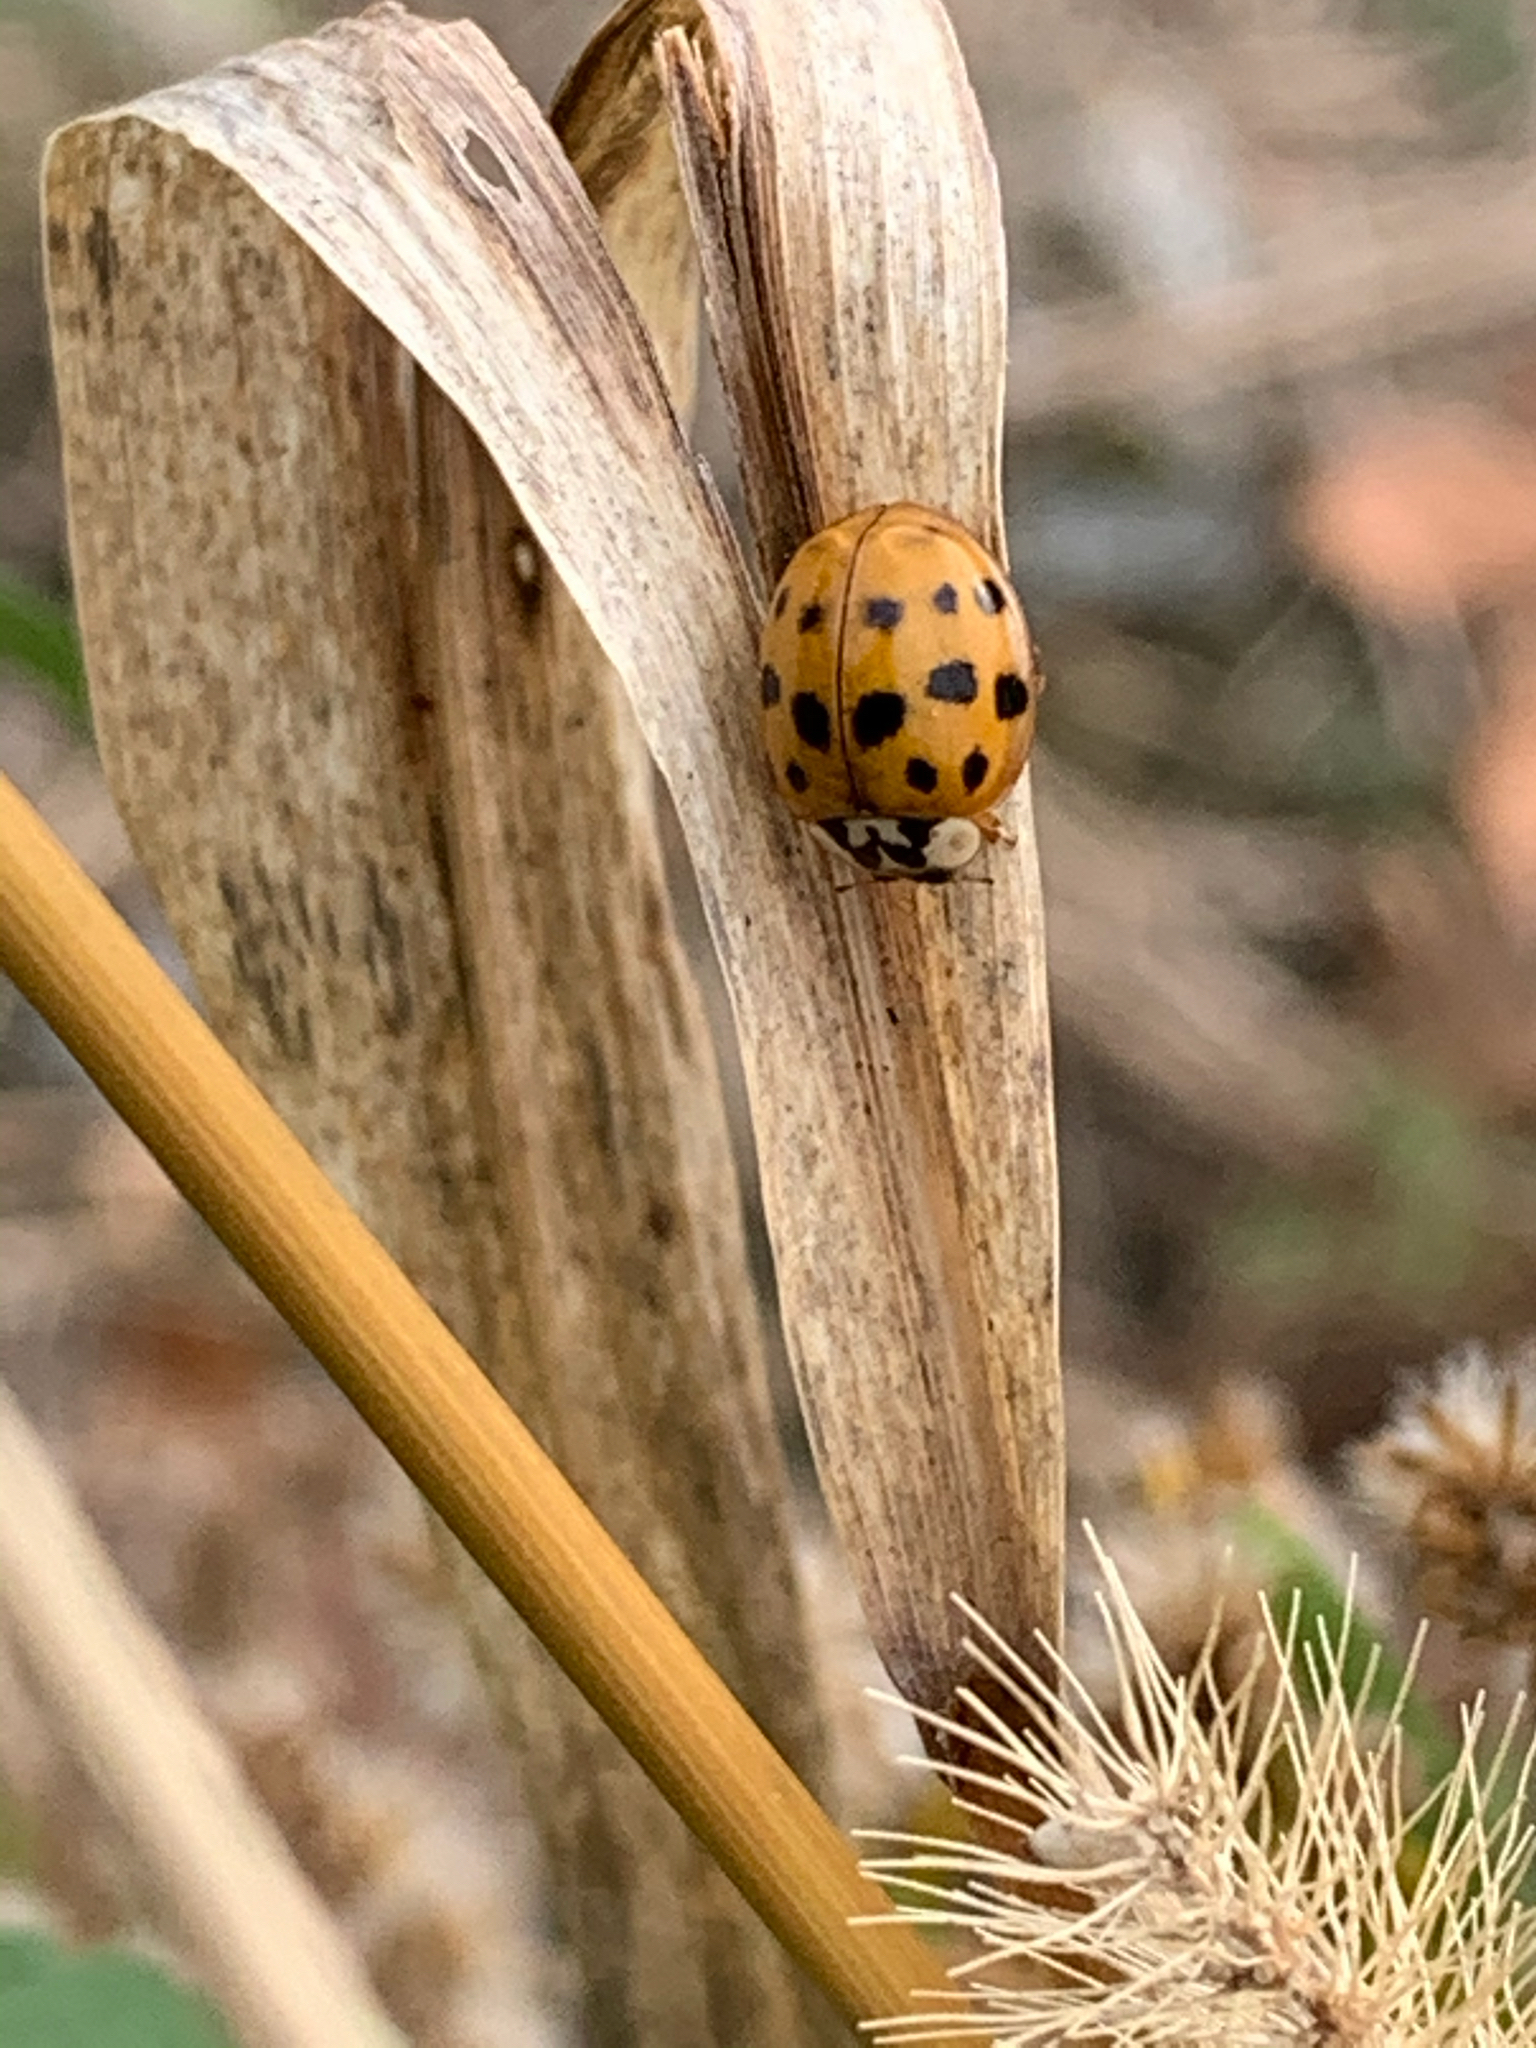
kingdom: Animalia
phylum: Arthropoda
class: Insecta
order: Coleoptera
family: Coccinellidae
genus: Harmonia
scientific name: Harmonia axyridis
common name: Harlequin ladybird
